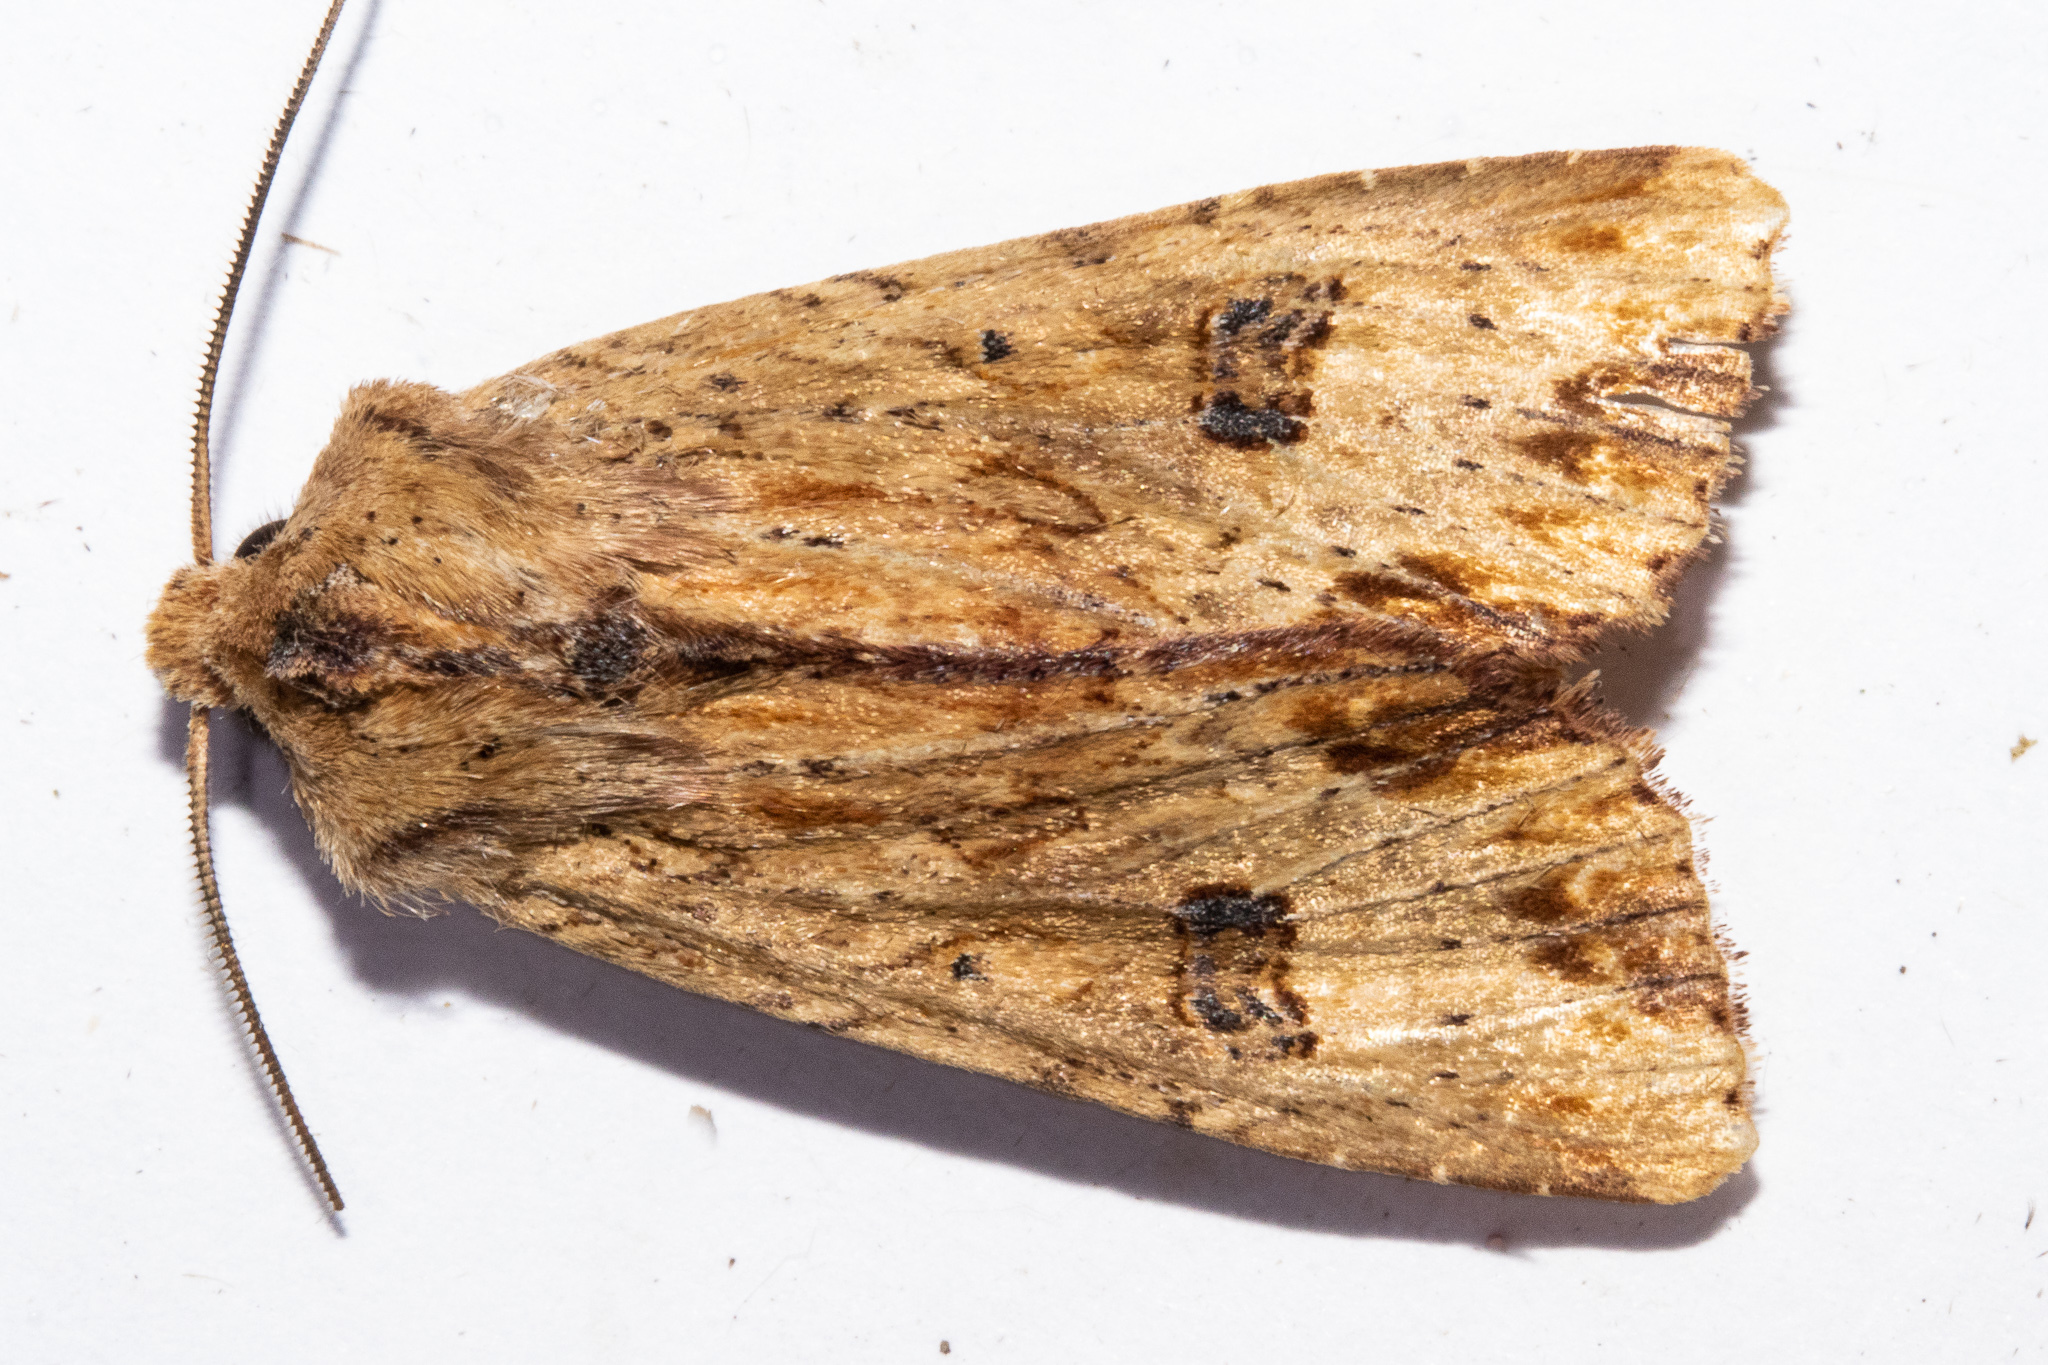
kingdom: Animalia
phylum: Arthropoda
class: Insecta
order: Lepidoptera
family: Noctuidae
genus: Ichneutica
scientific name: Ichneutica
